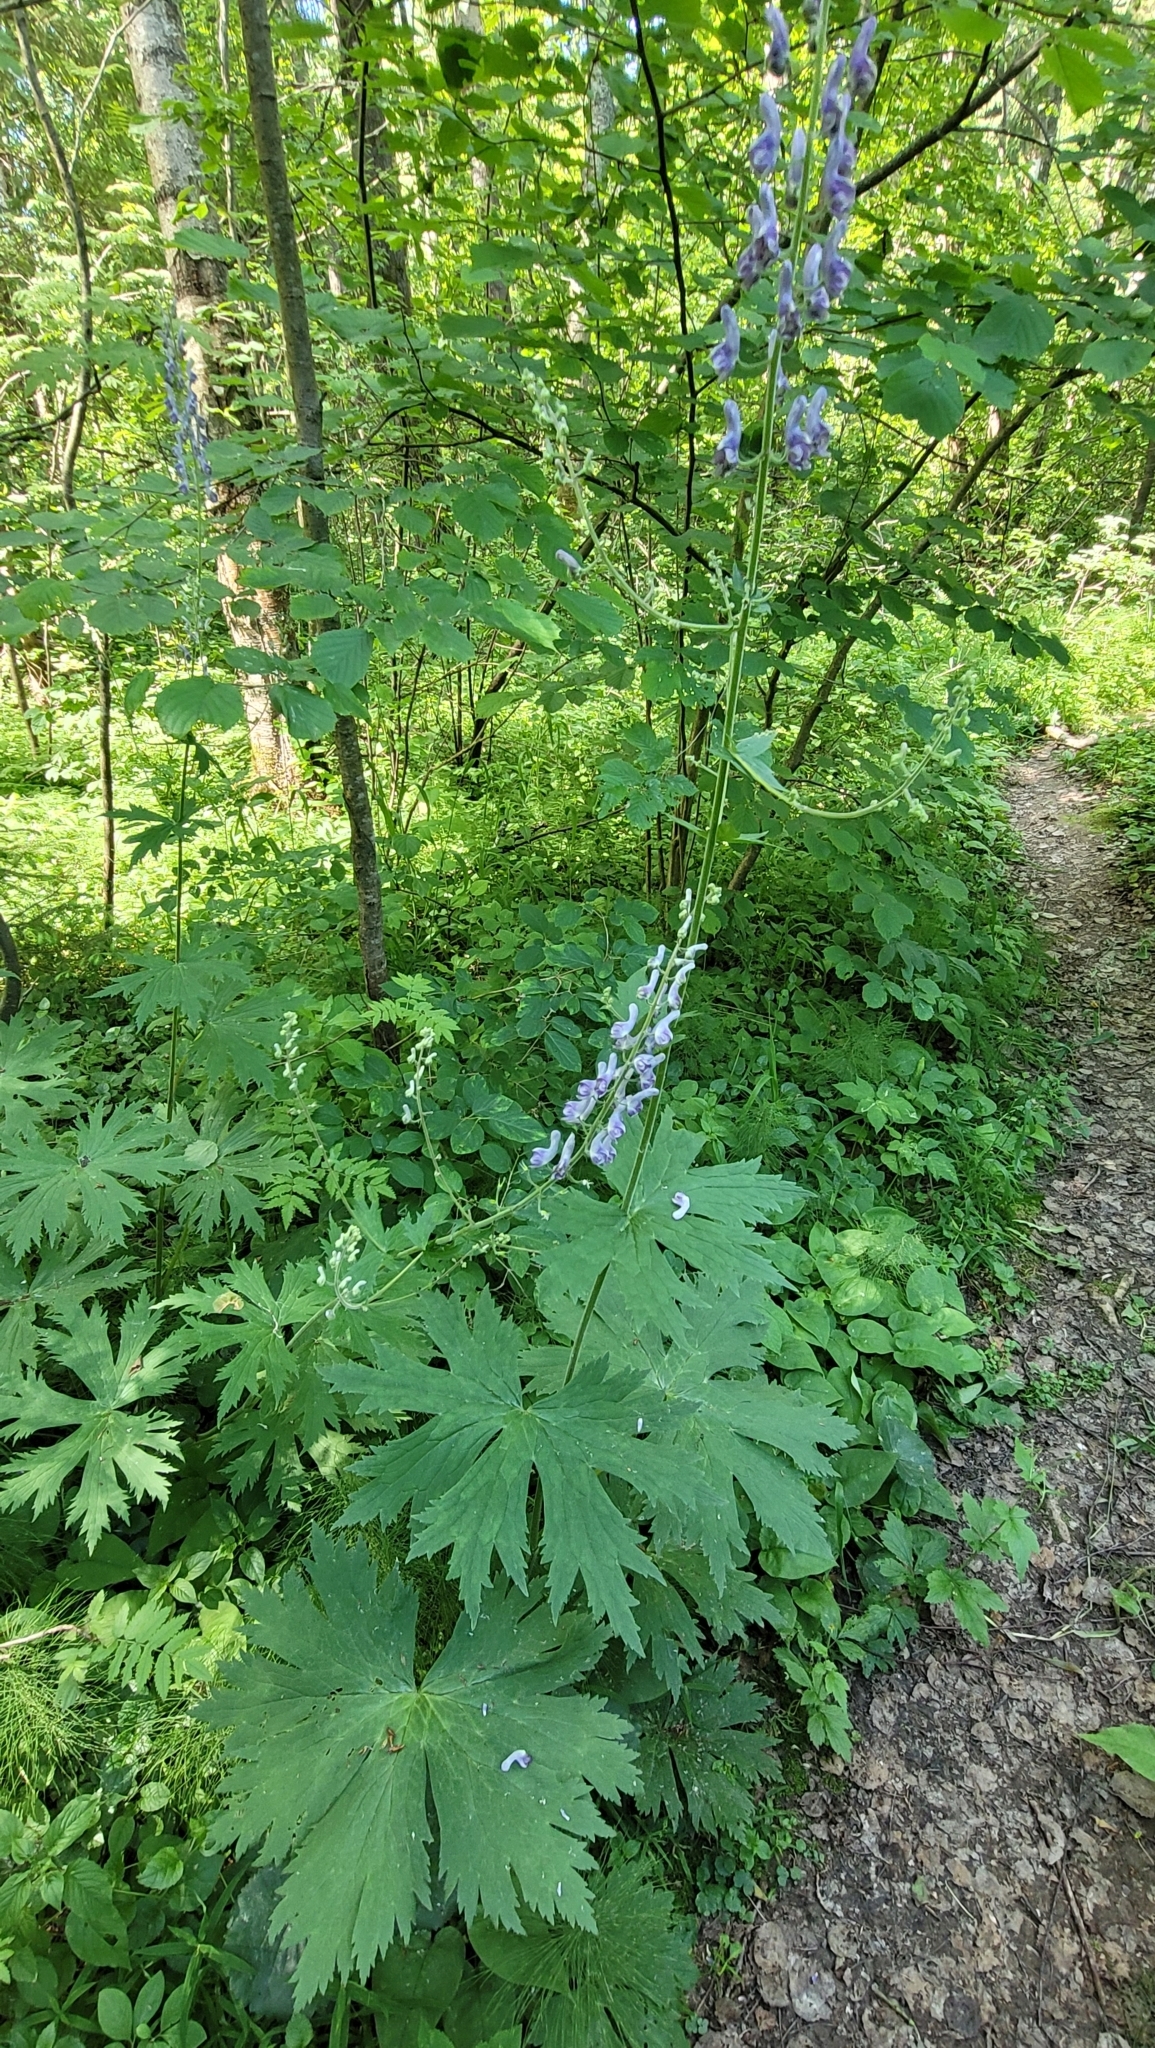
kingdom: Plantae
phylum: Tracheophyta
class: Magnoliopsida
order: Ranunculales
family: Ranunculaceae
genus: Aconitum
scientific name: Aconitum septentrionale
